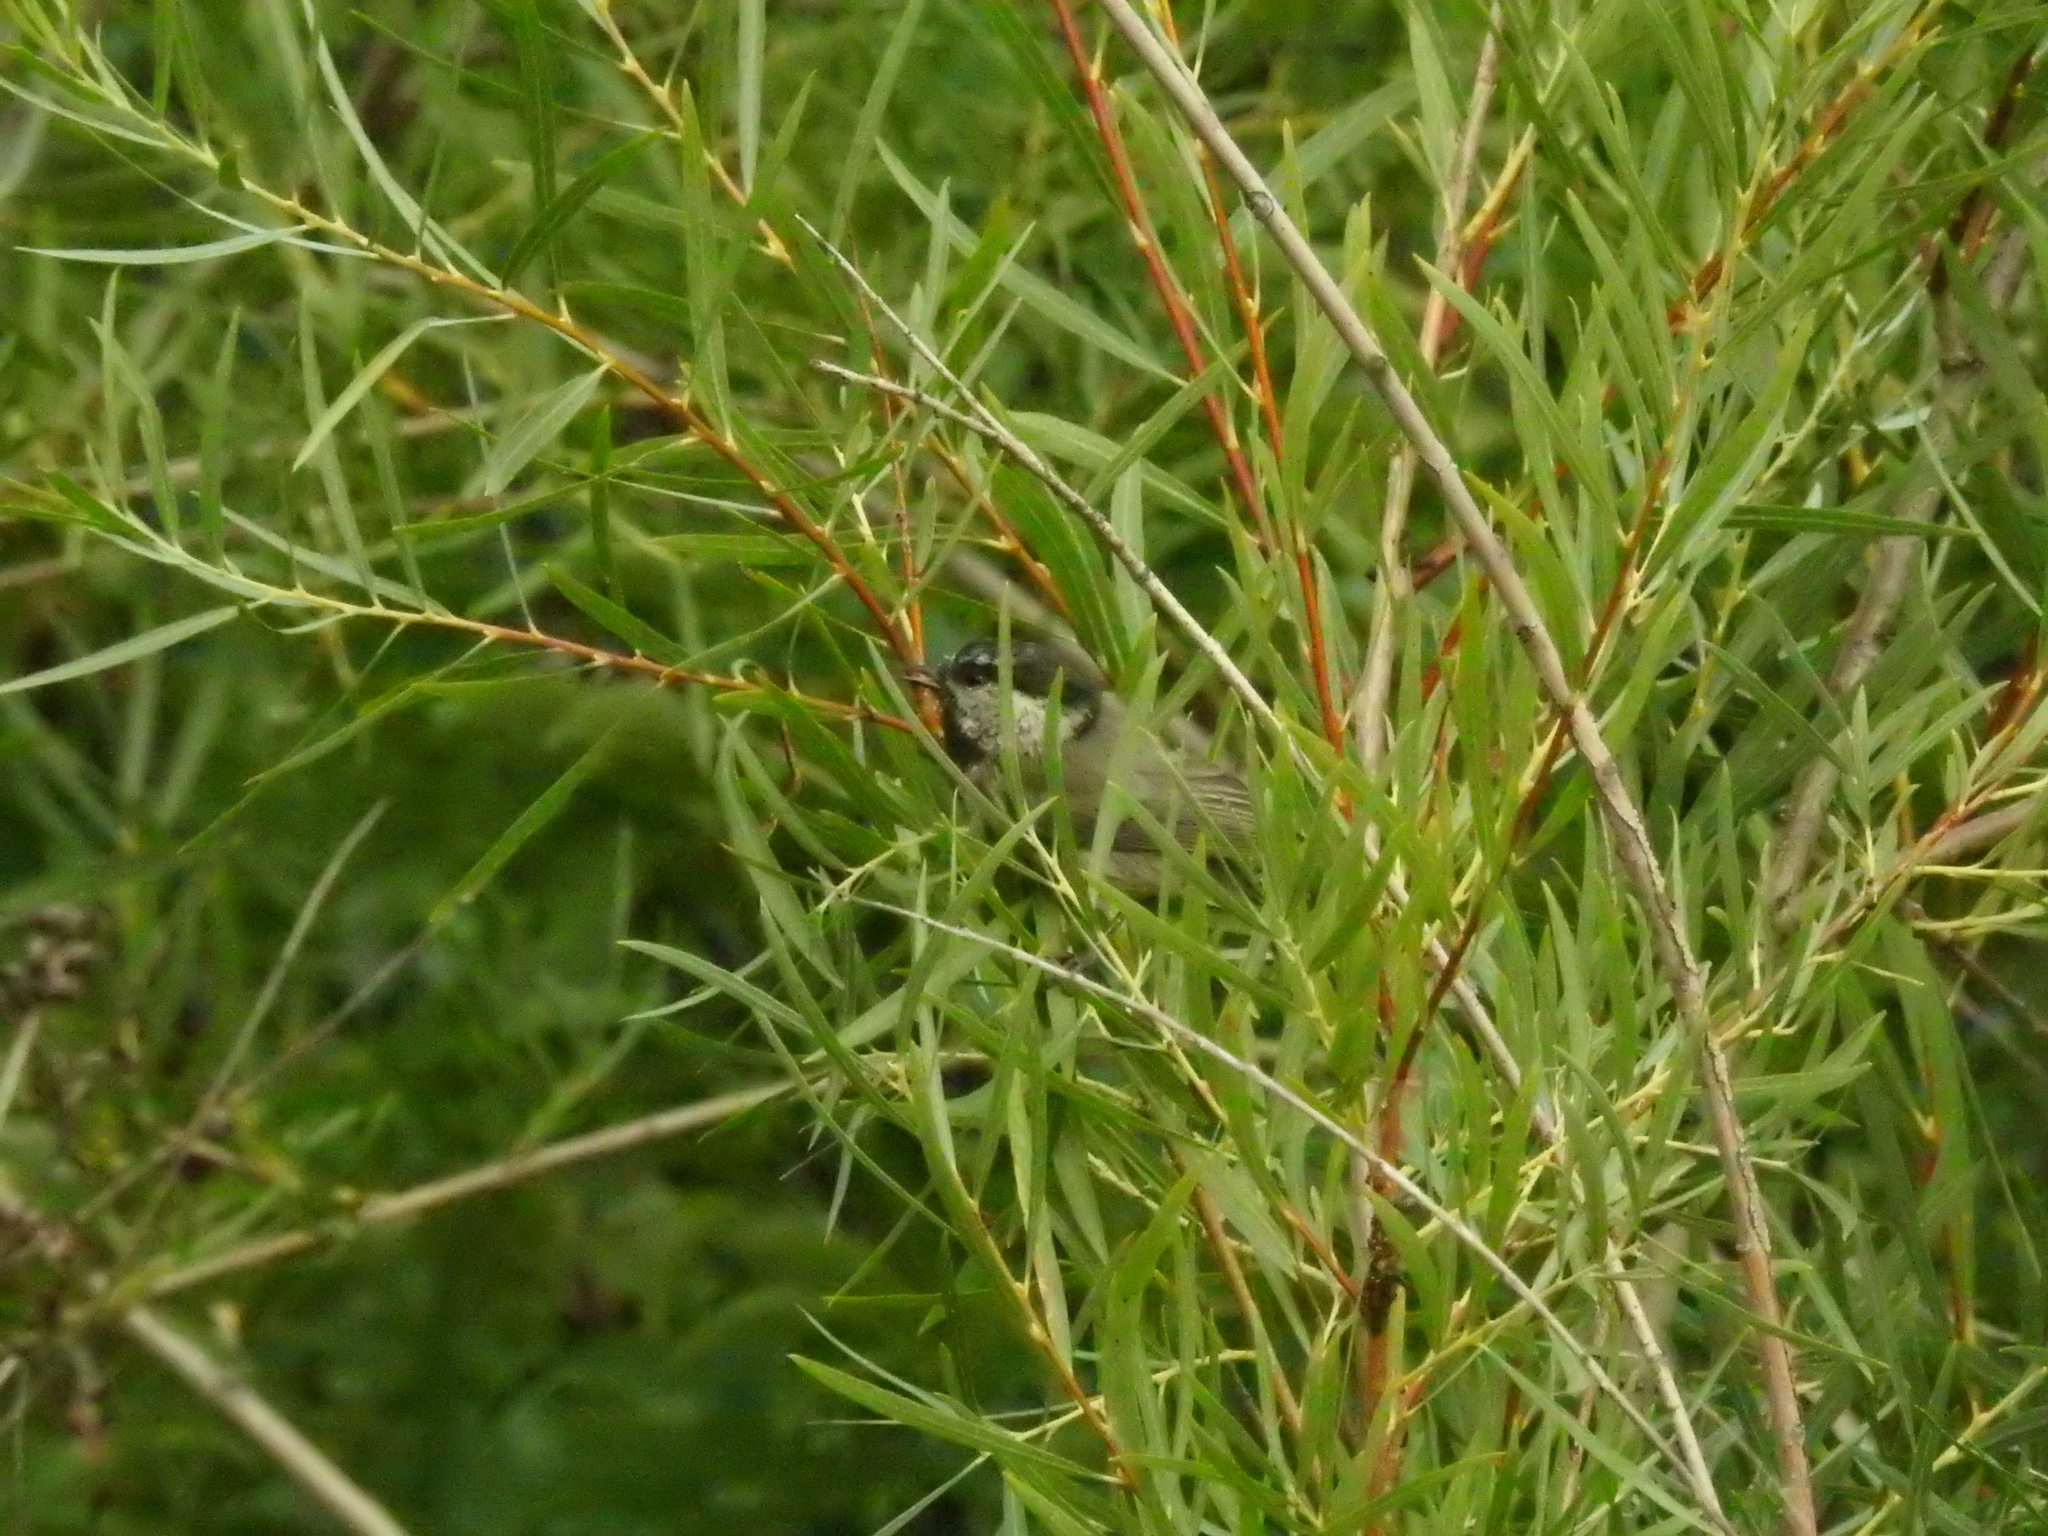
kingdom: Animalia
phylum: Chordata
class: Aves
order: Passeriformes
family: Paridae
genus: Poecile
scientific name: Poecile gambeli
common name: Mountain chickadee
